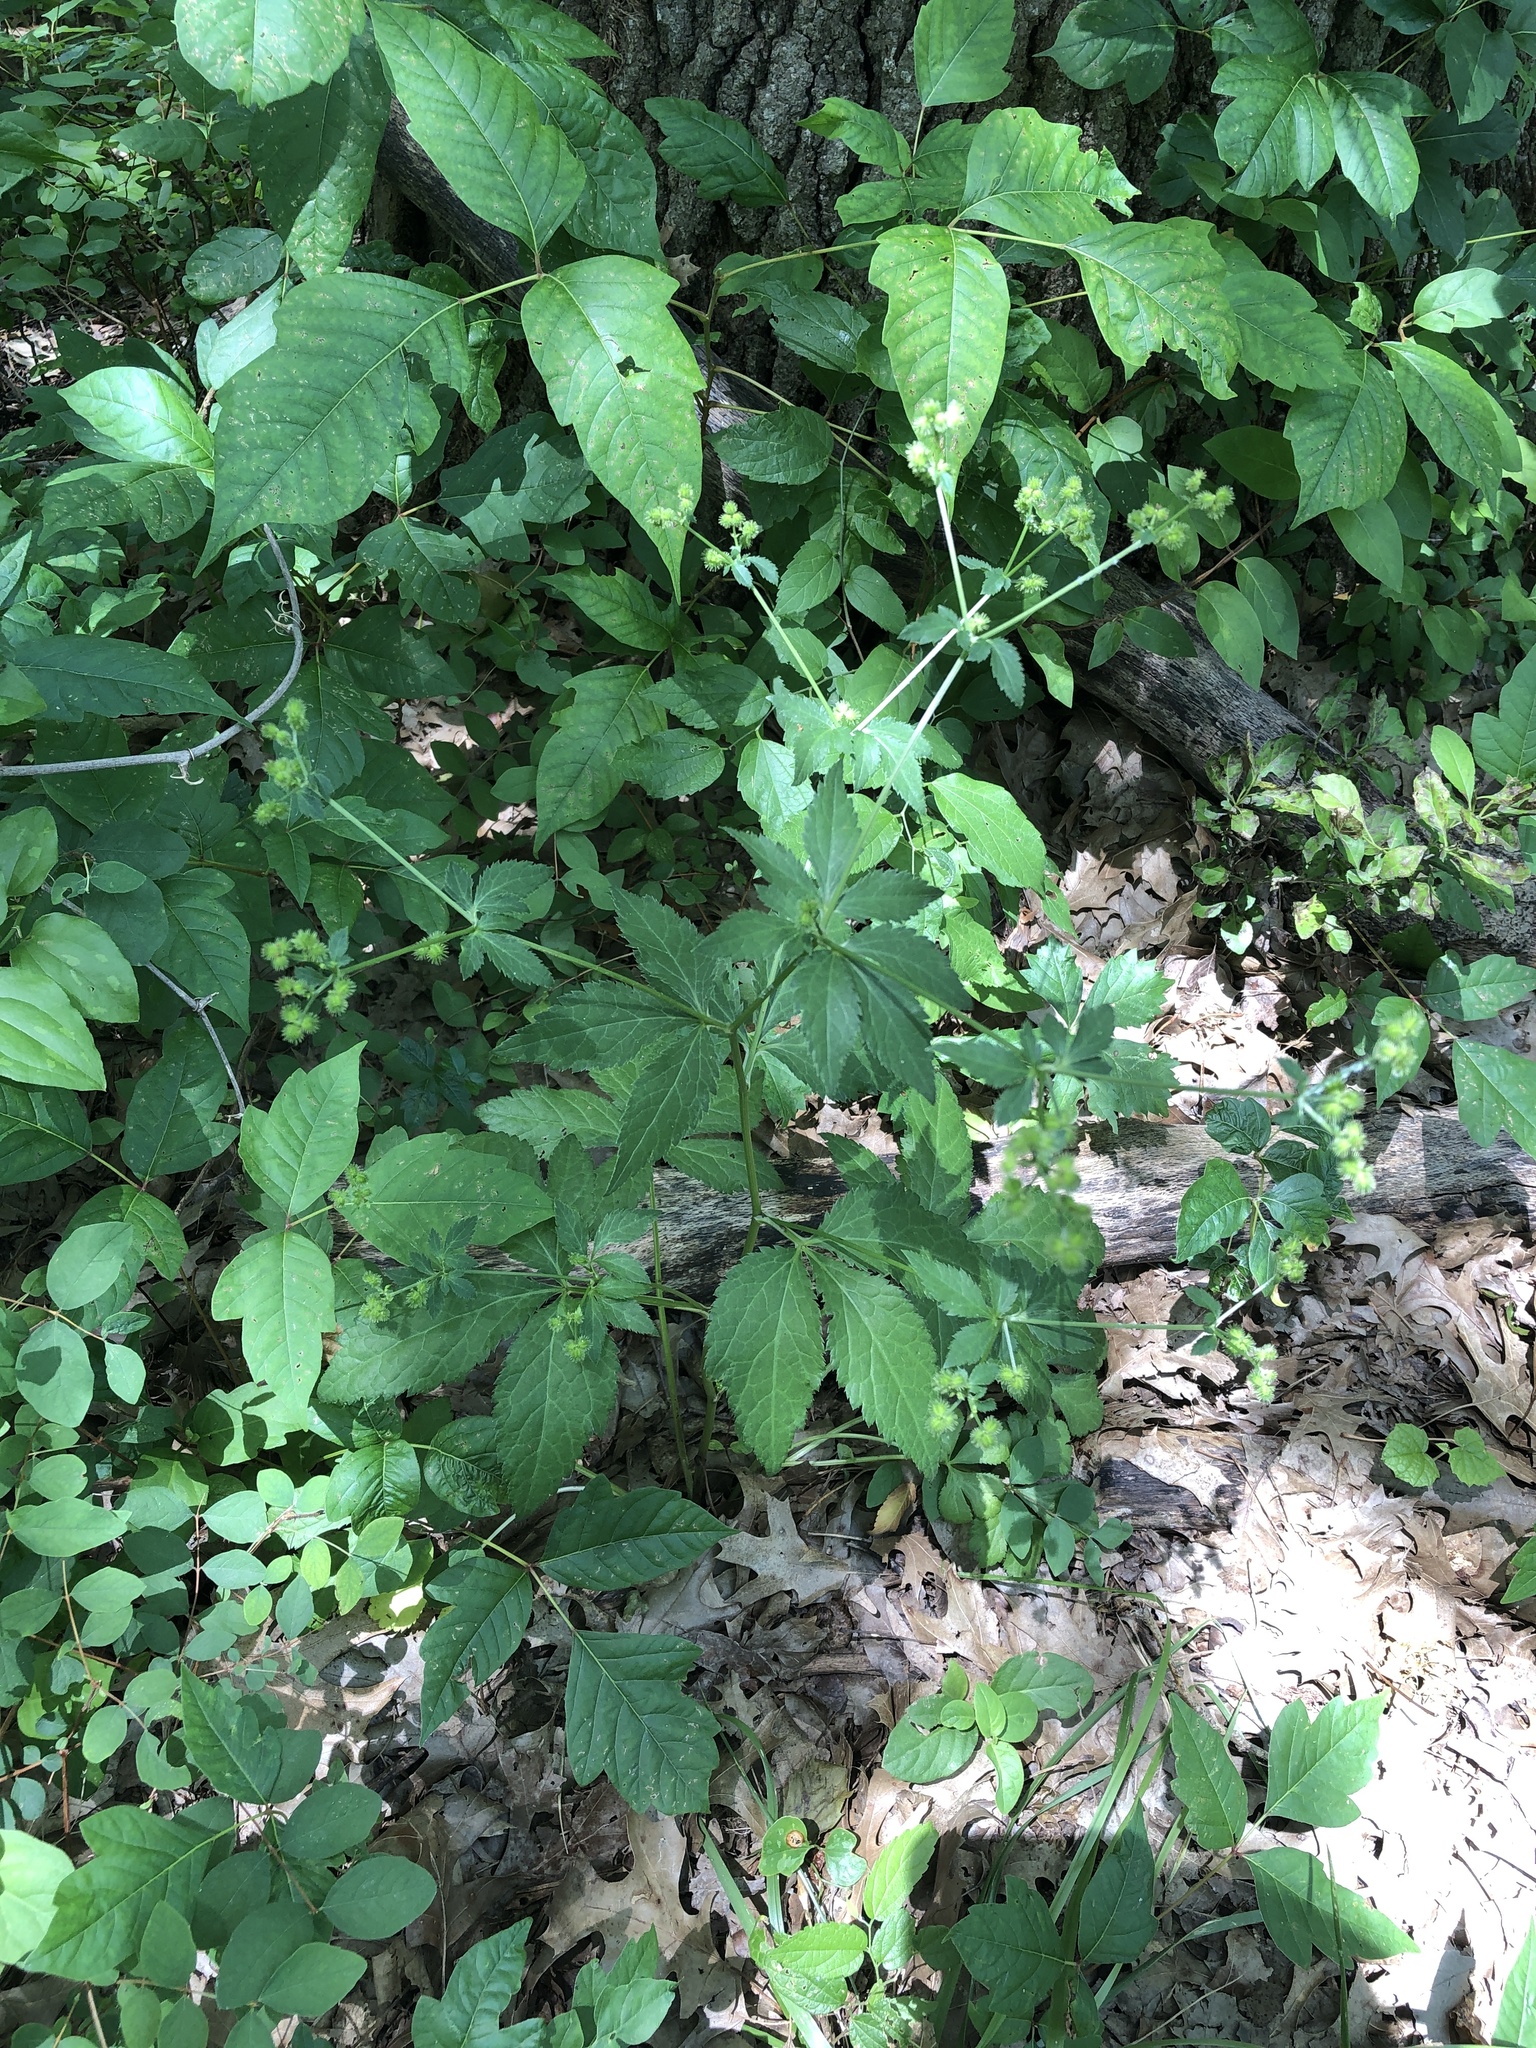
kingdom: Plantae
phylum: Tracheophyta
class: Magnoliopsida
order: Apiales
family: Apiaceae
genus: Sanicula
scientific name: Sanicula canadensis
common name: Canada sanicle
